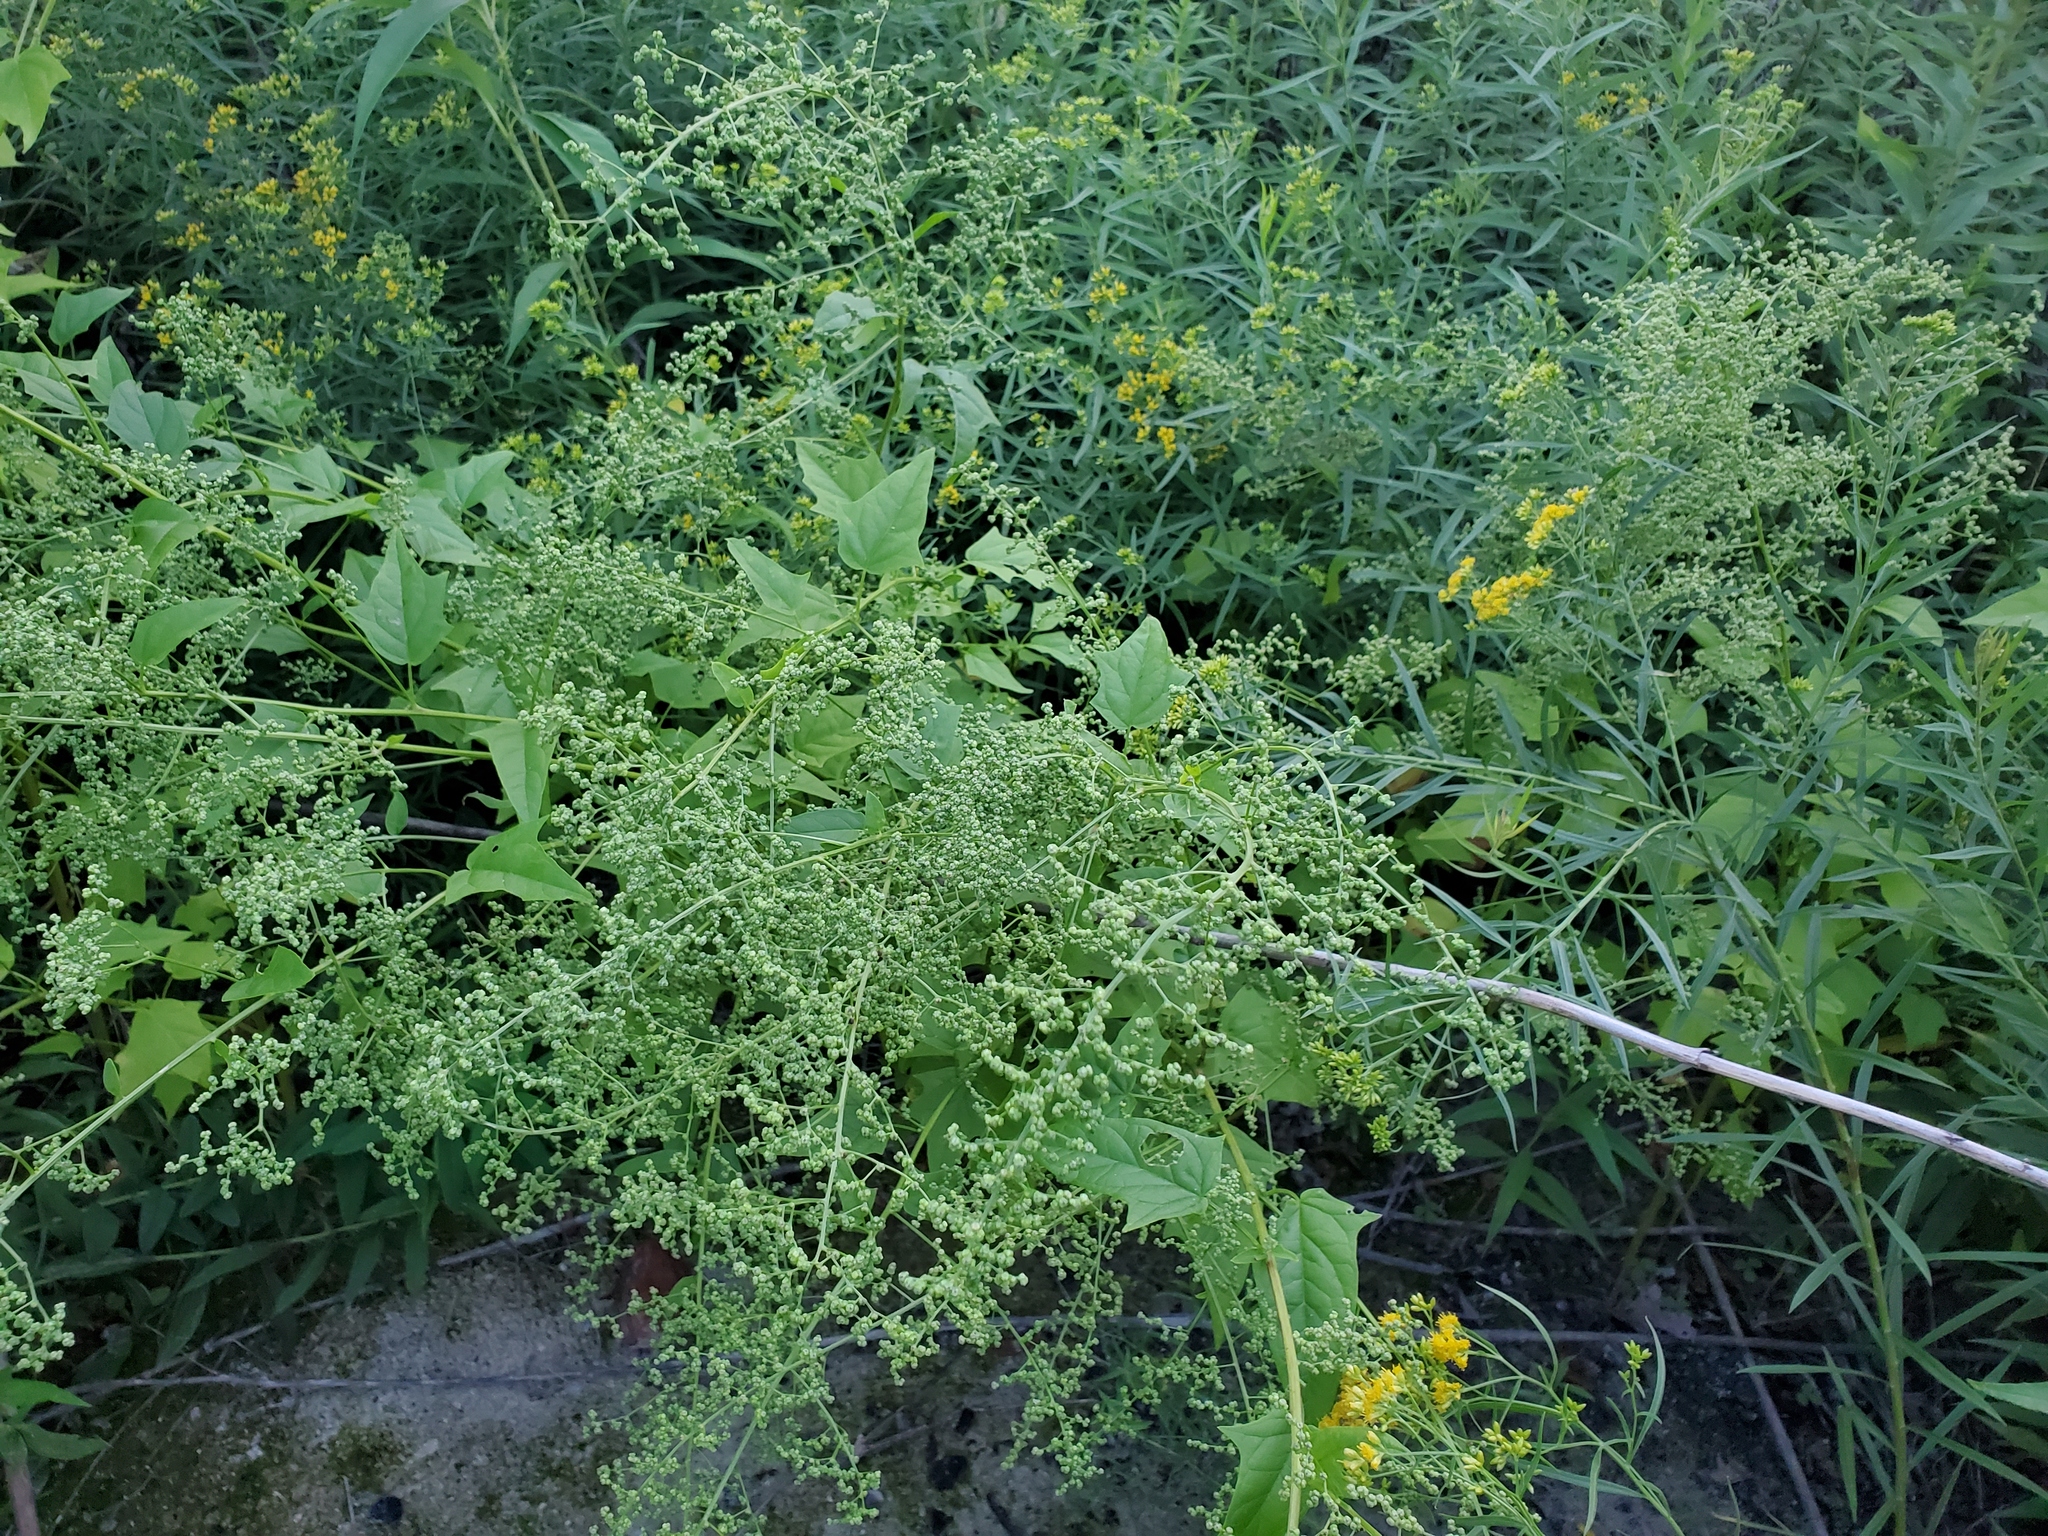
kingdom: Plantae
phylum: Tracheophyta
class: Magnoliopsida
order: Caryophyllales
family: Amaranthaceae
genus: Chenopodiastrum
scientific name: Chenopodiastrum simplex
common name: Large-seed goosefoot
